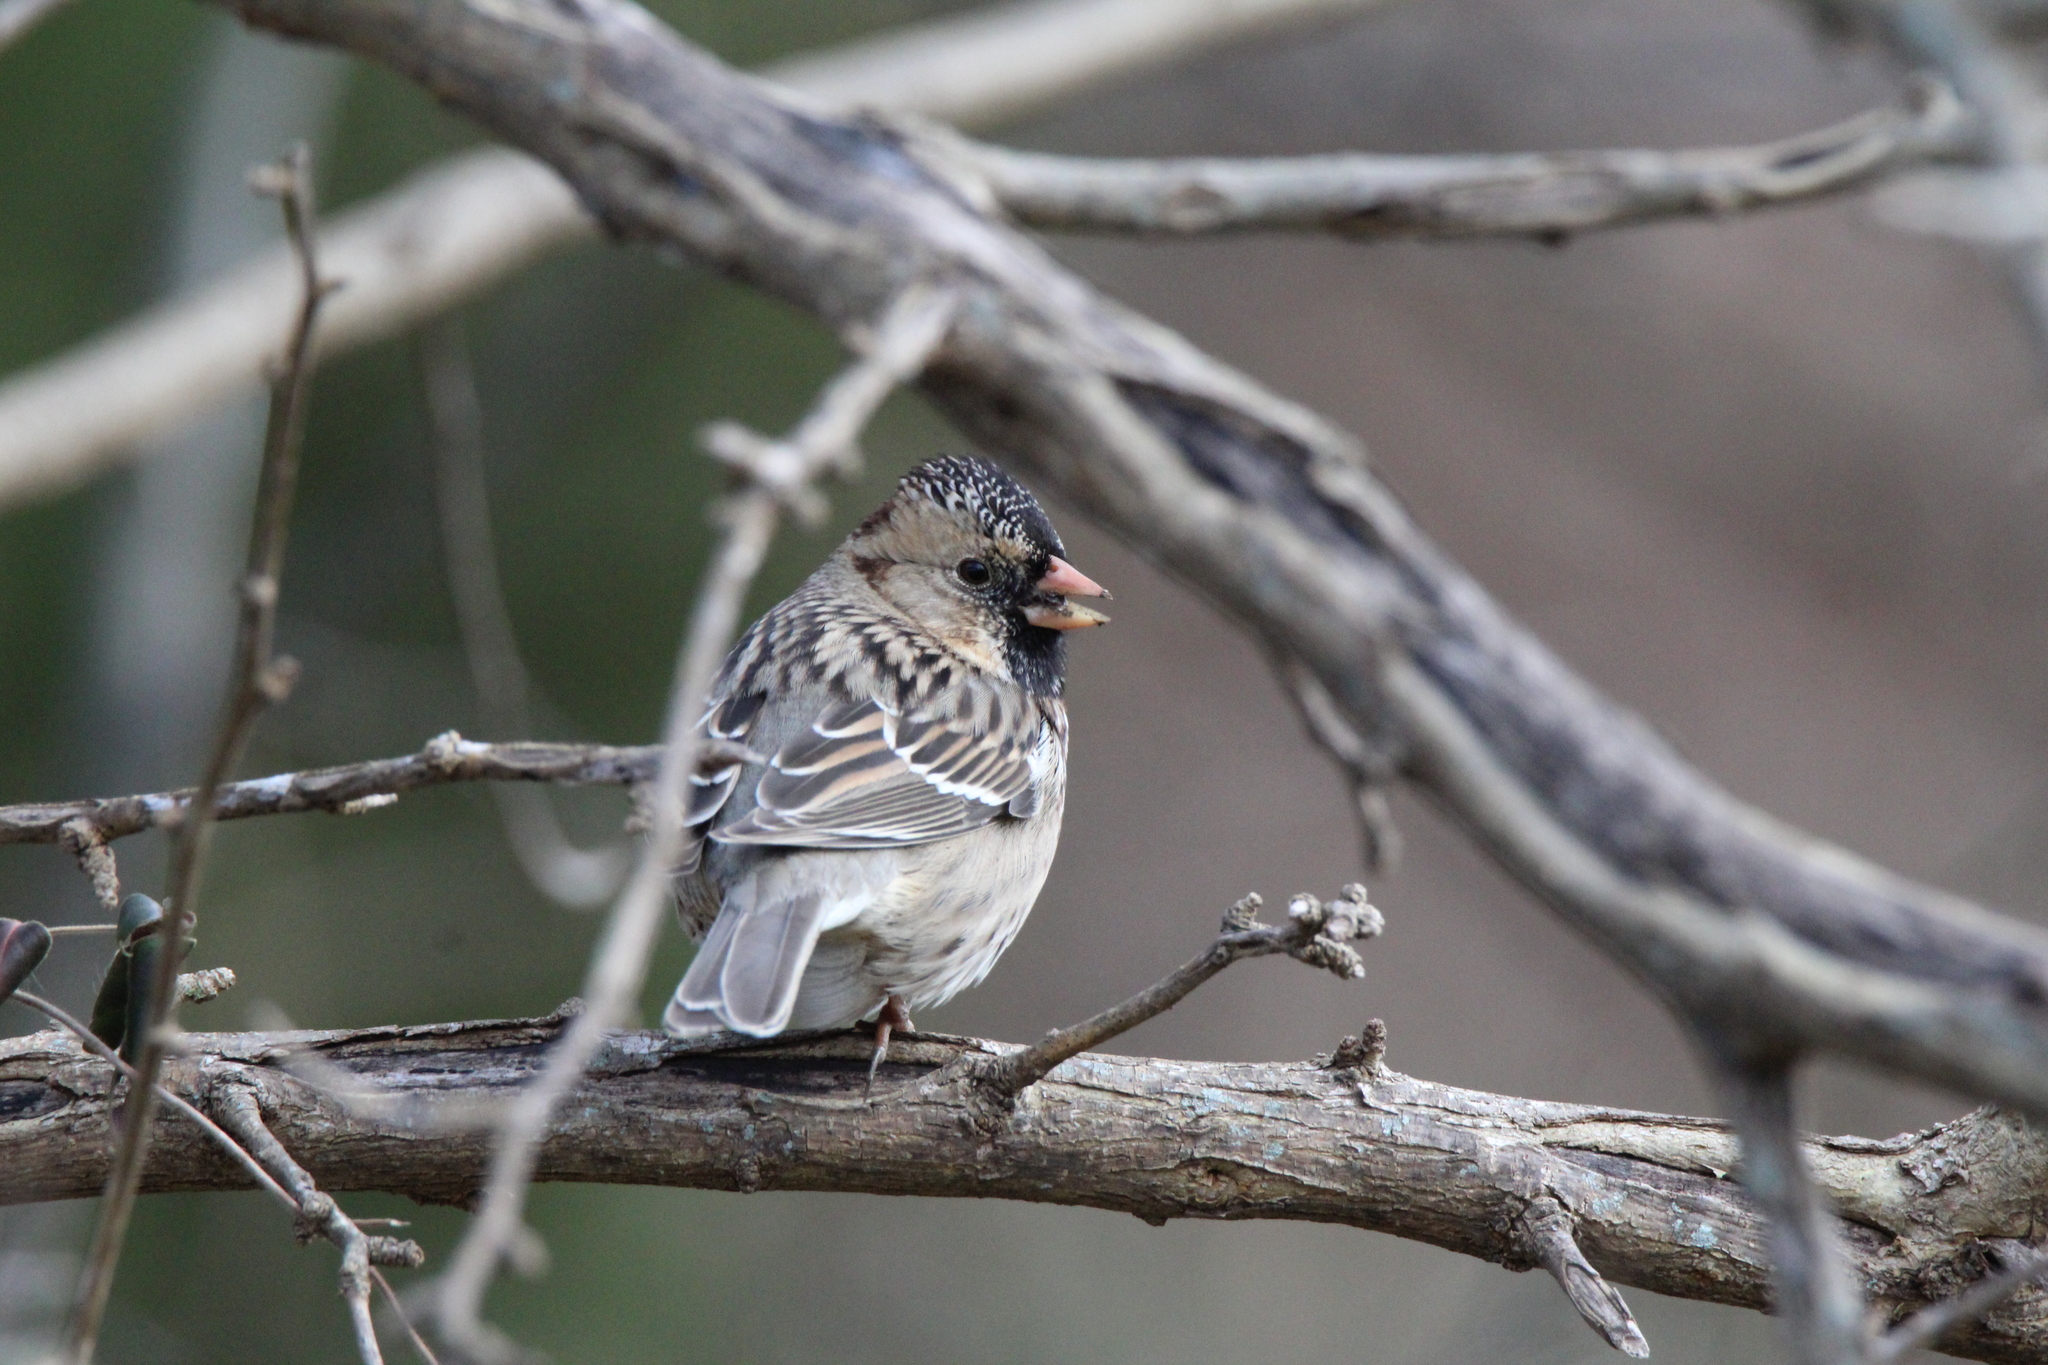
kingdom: Animalia
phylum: Chordata
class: Aves
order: Passeriformes
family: Passerellidae
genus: Zonotrichia
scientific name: Zonotrichia querula
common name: Harris's sparrow
